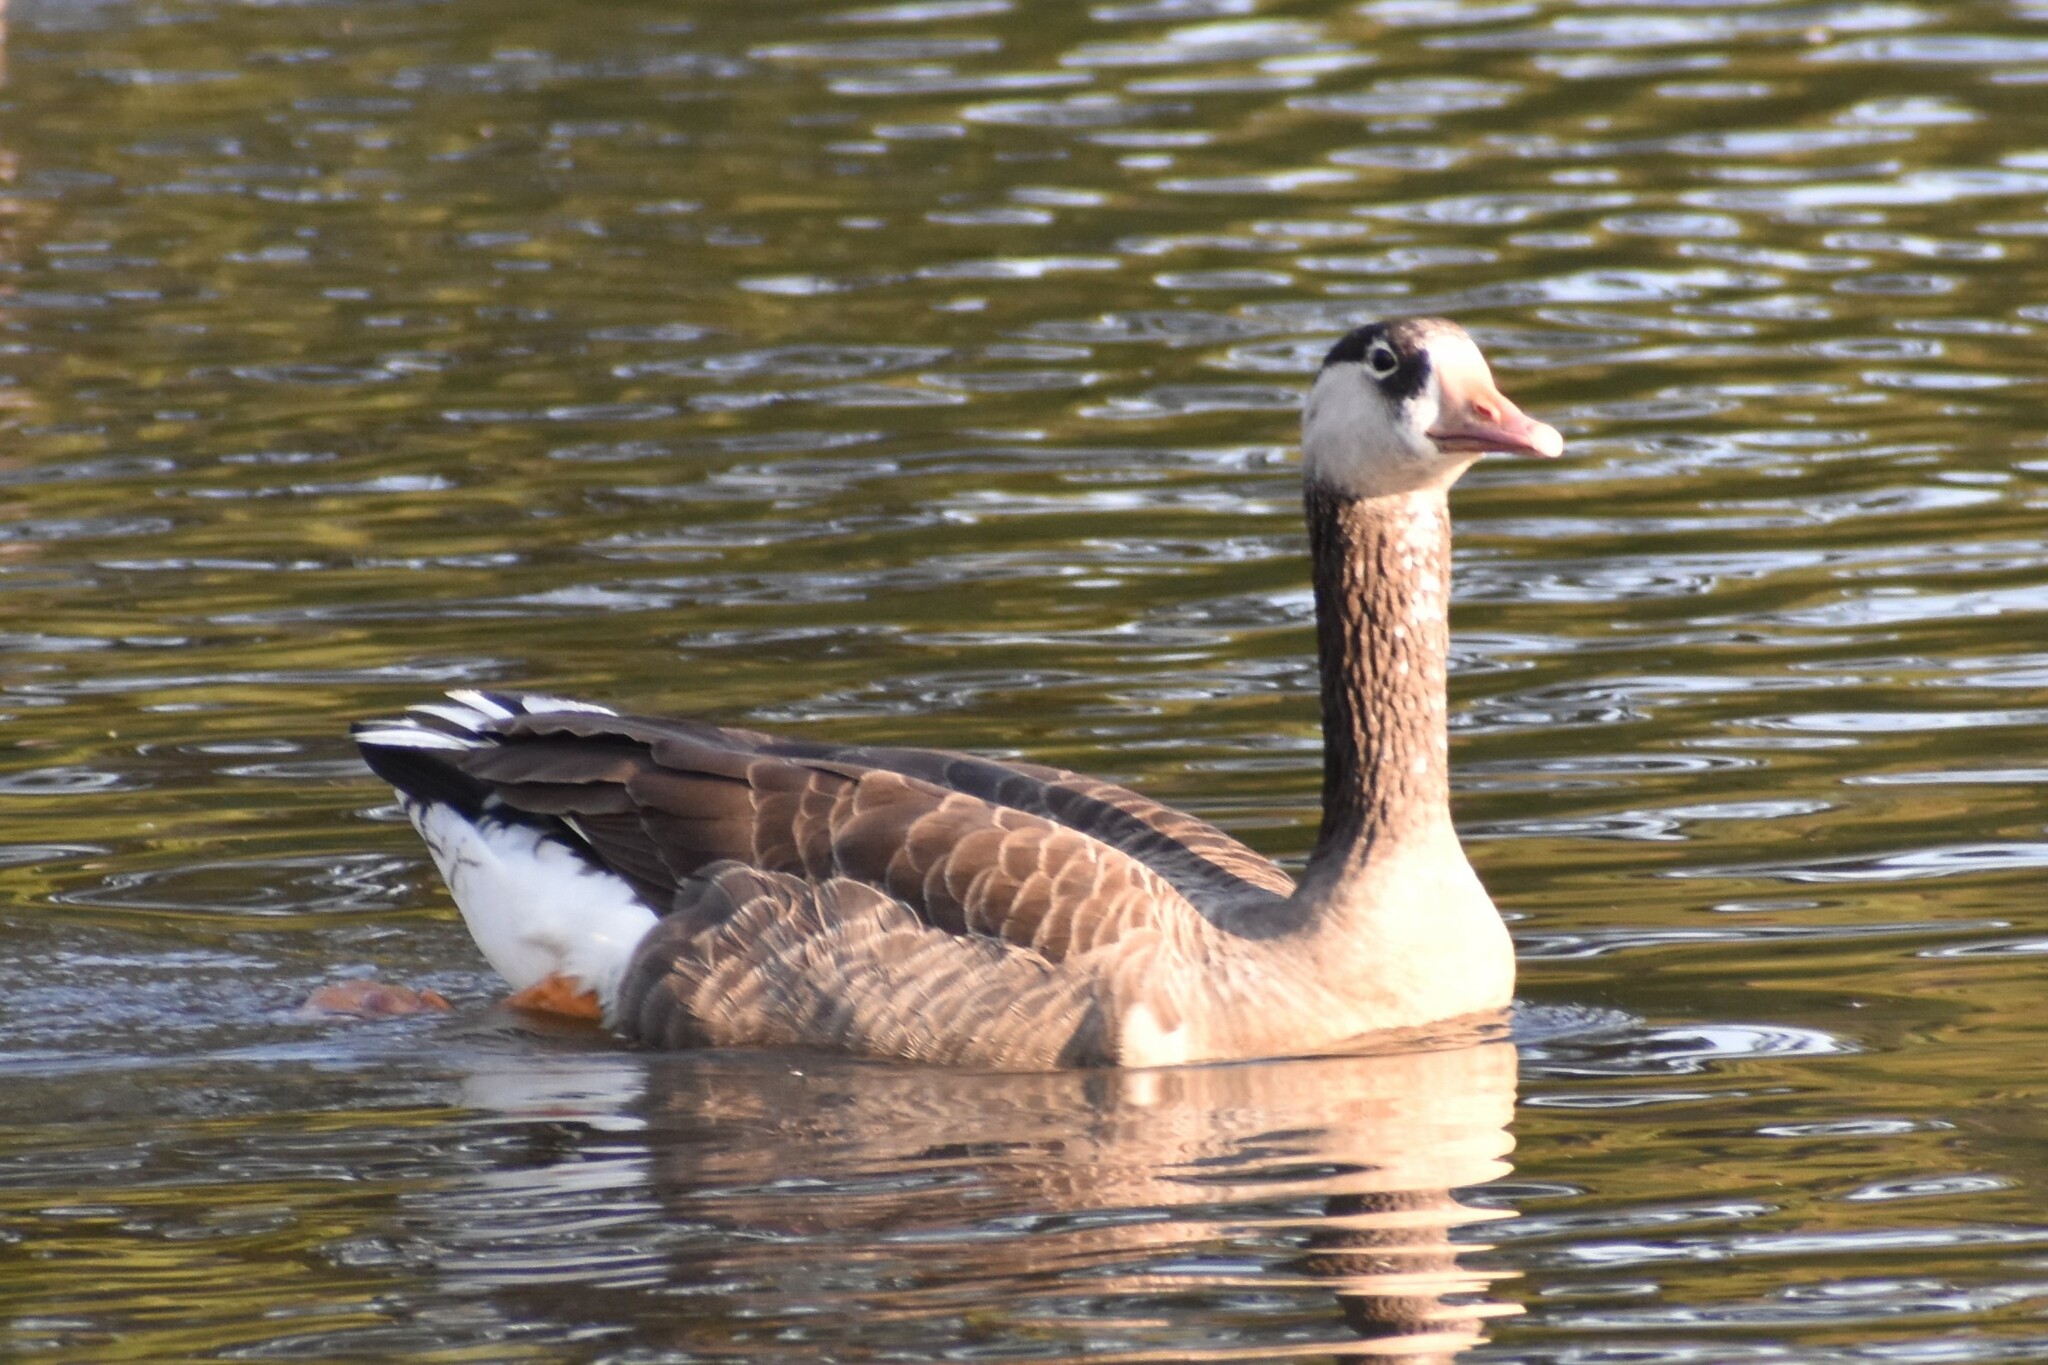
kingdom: Animalia
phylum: Chordata
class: Aves
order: Anseriformes
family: Anatidae
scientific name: Anatidae
